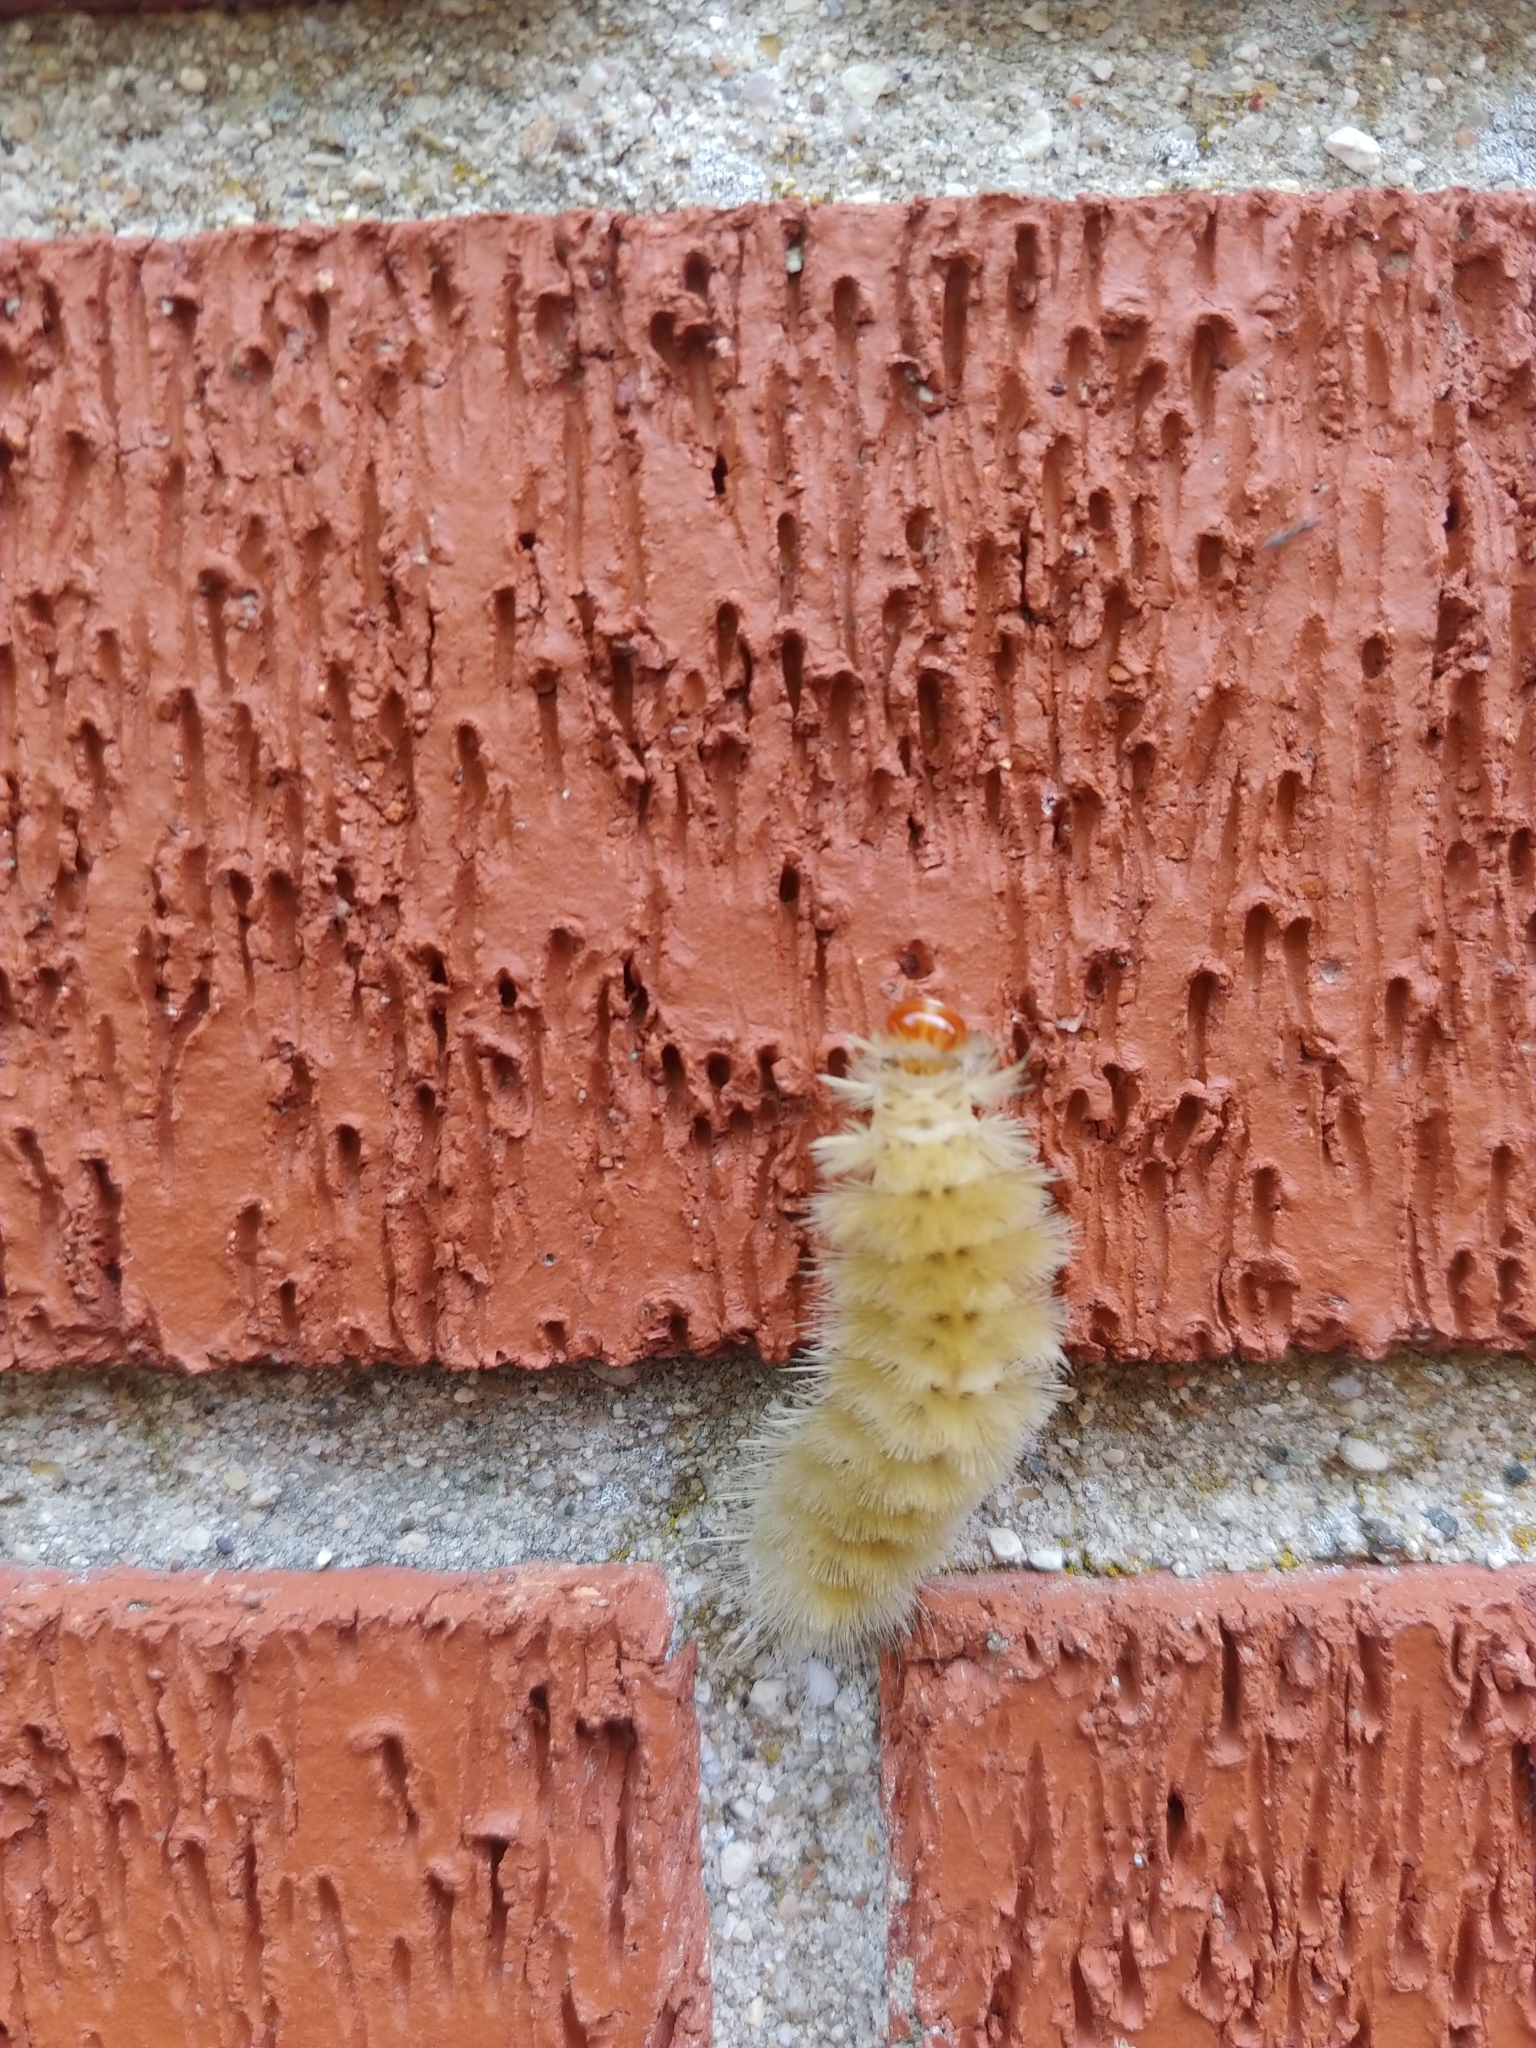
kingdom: Animalia
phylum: Arthropoda
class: Insecta
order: Lepidoptera
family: Erebidae
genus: Halysidota
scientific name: Halysidota harrisii
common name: Sycamore tussock moth
